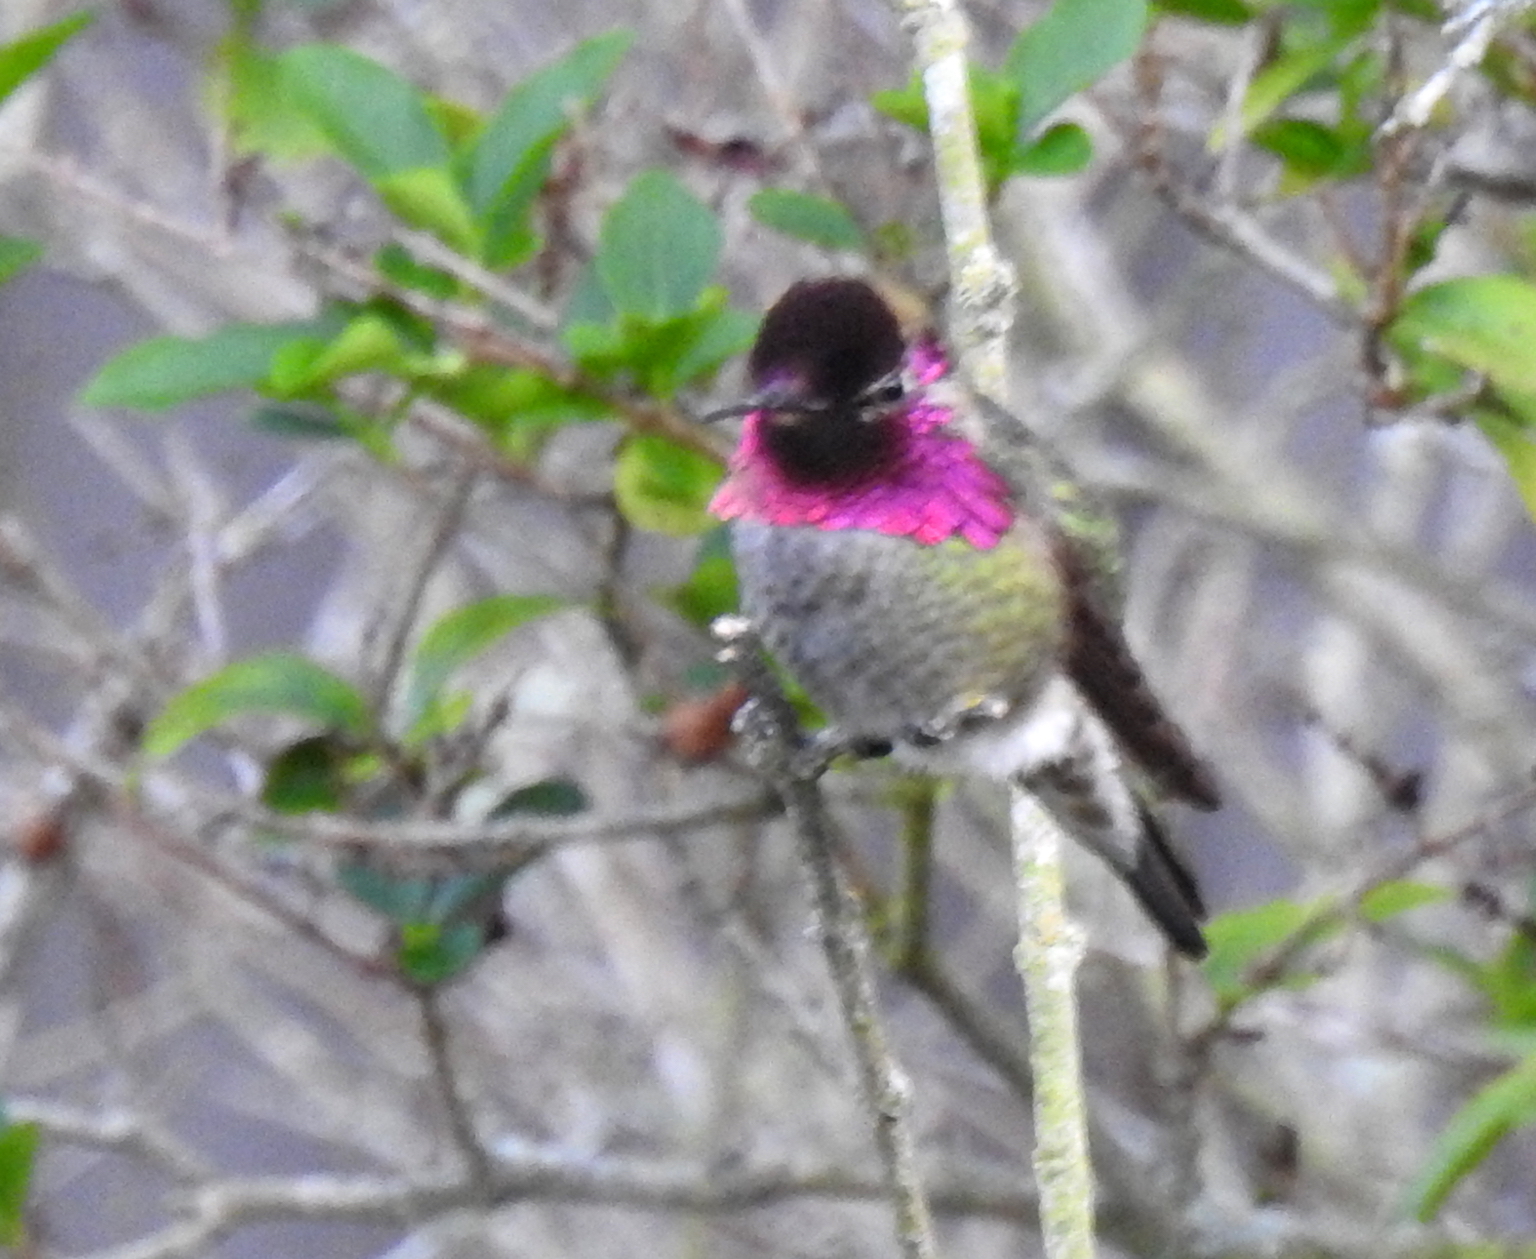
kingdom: Animalia
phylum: Chordata
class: Aves
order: Apodiformes
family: Trochilidae
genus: Calypte
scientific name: Calypte anna
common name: Anna's hummingbird
